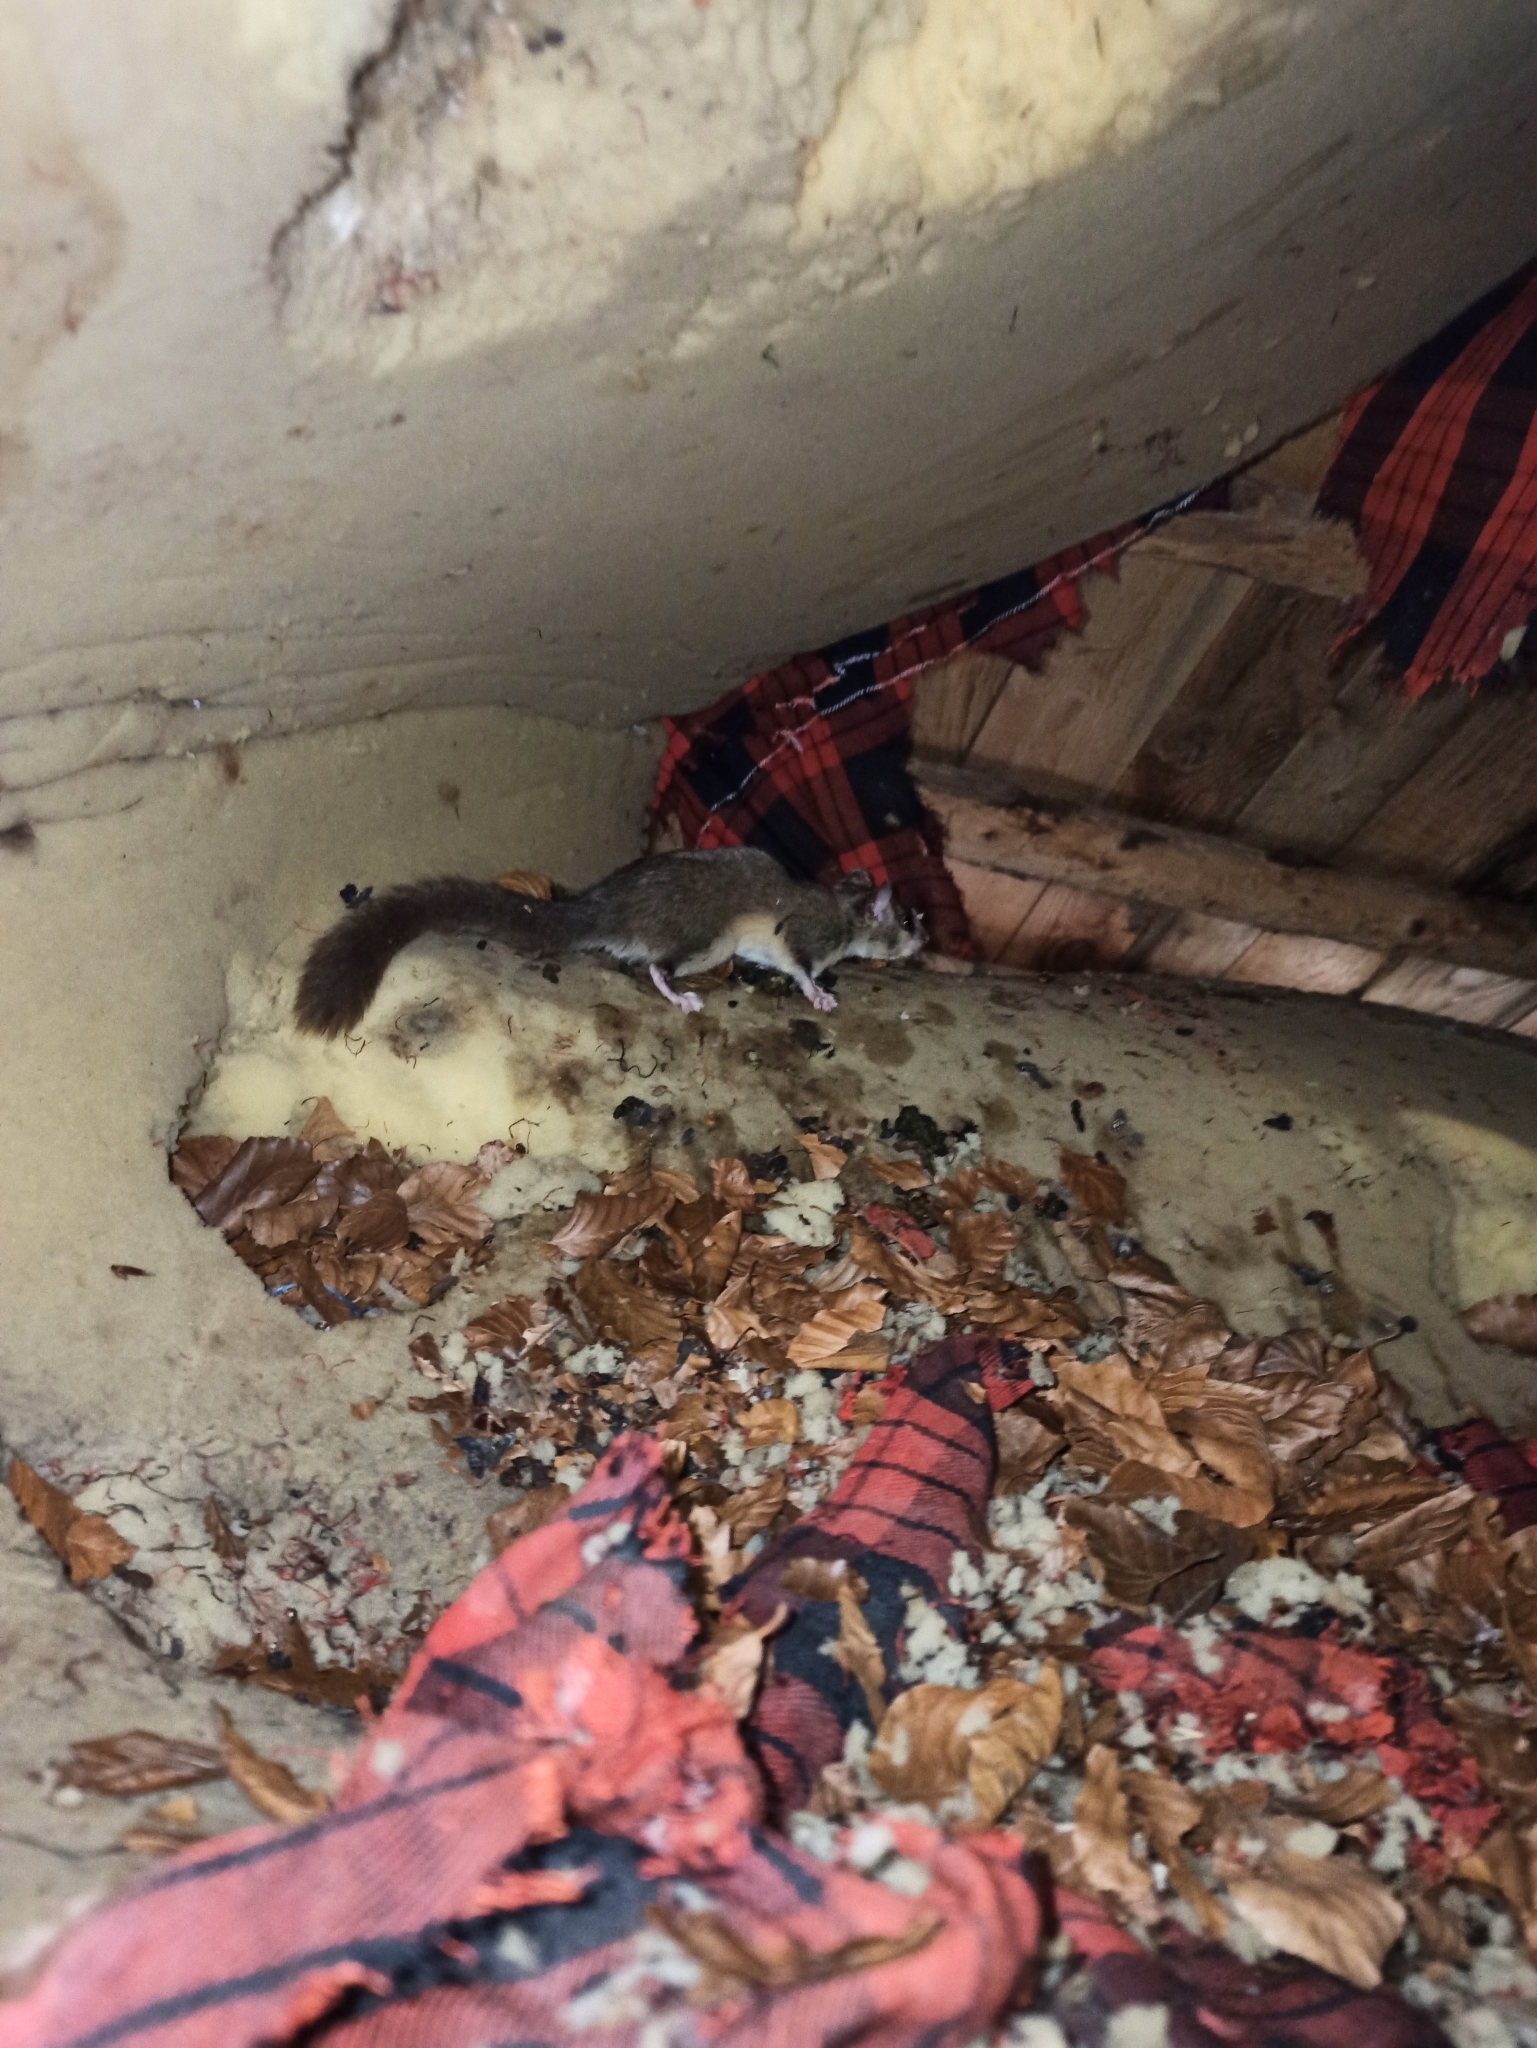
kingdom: Animalia
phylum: Chordata
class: Mammalia
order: Rodentia
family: Gliridae
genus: Glis
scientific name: Glis glis
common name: Fat dormouse
